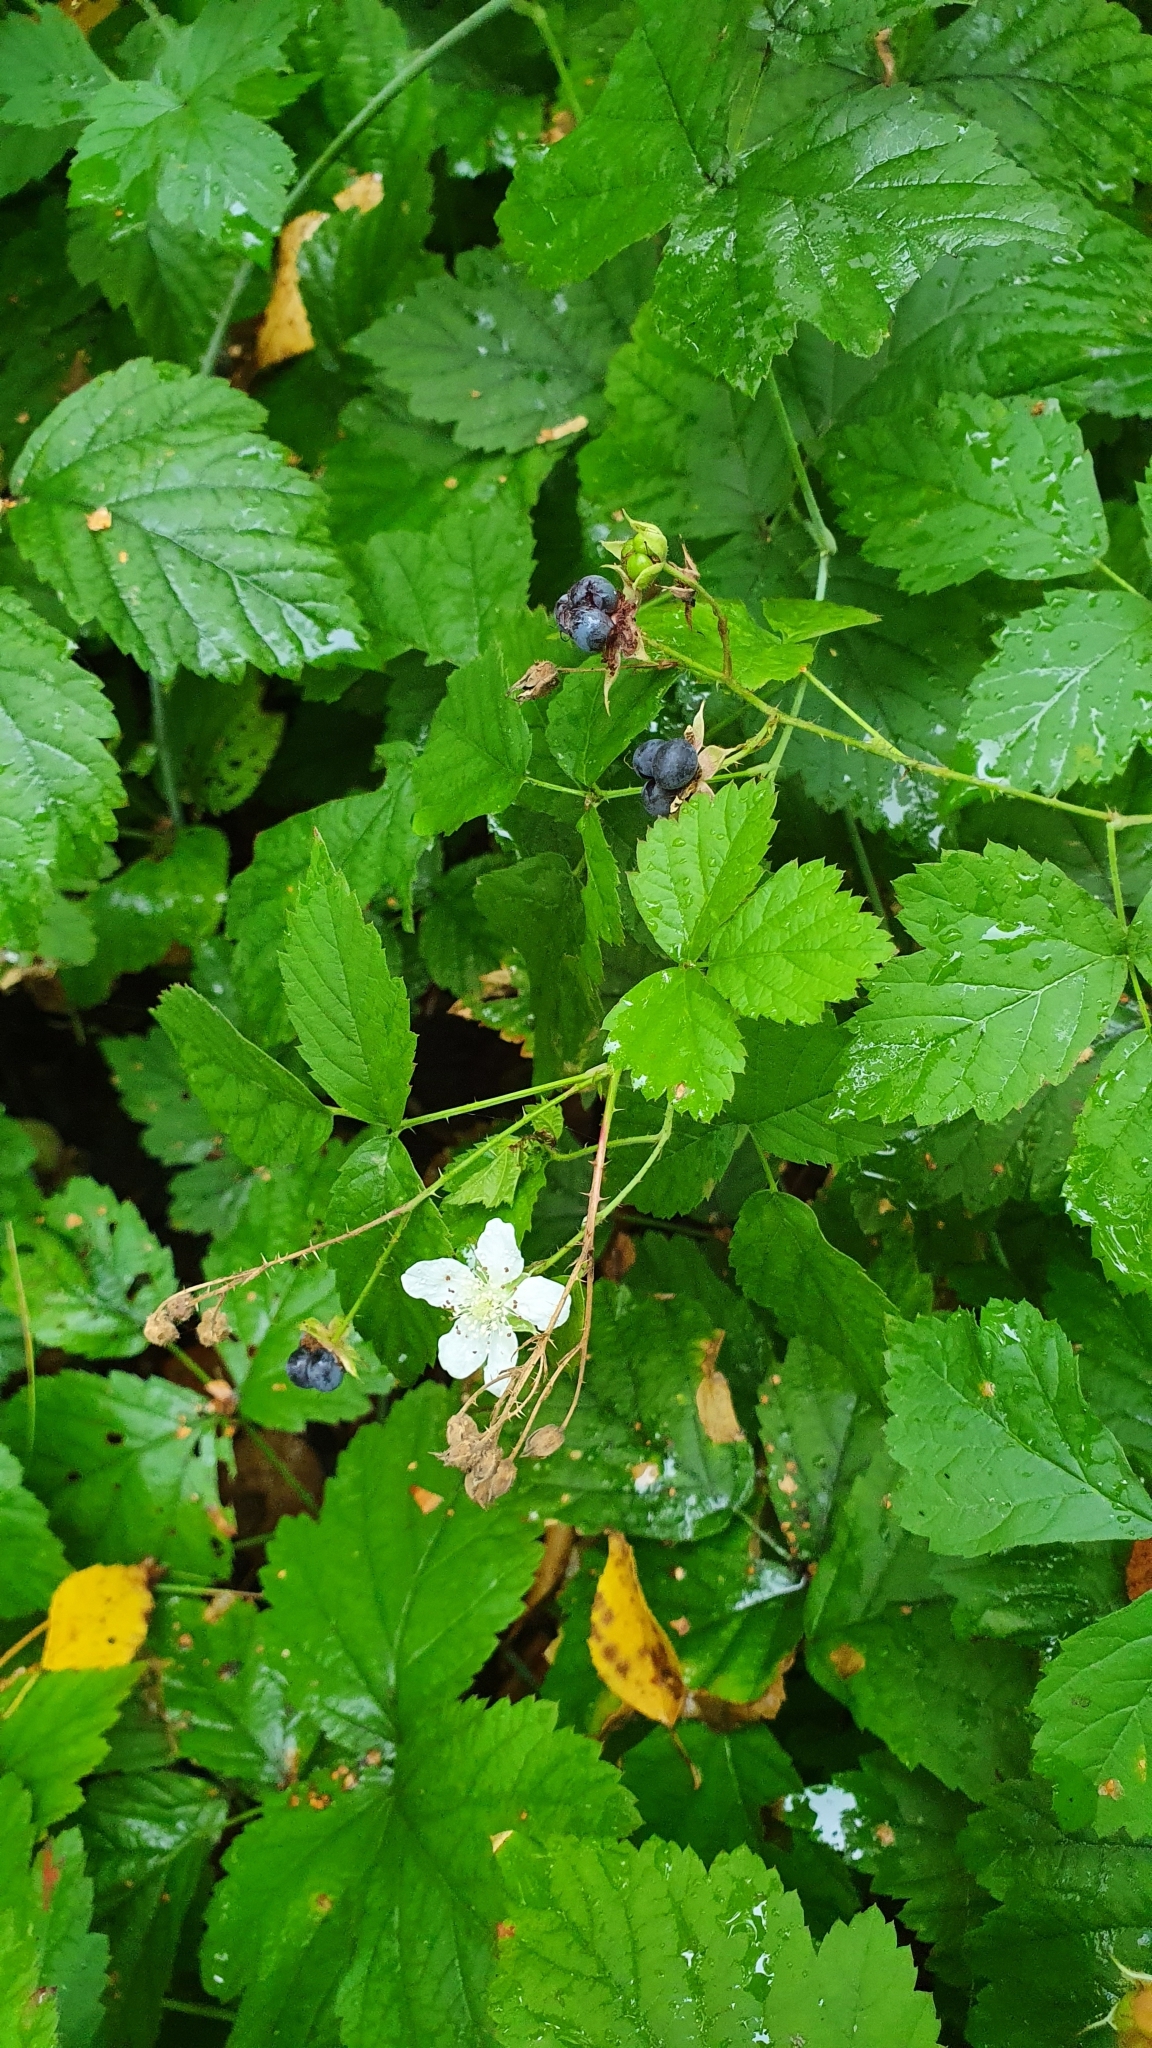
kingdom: Plantae
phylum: Tracheophyta
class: Magnoliopsida
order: Rosales
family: Rosaceae
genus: Rubus
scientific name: Rubus caesius
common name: Dewberry
